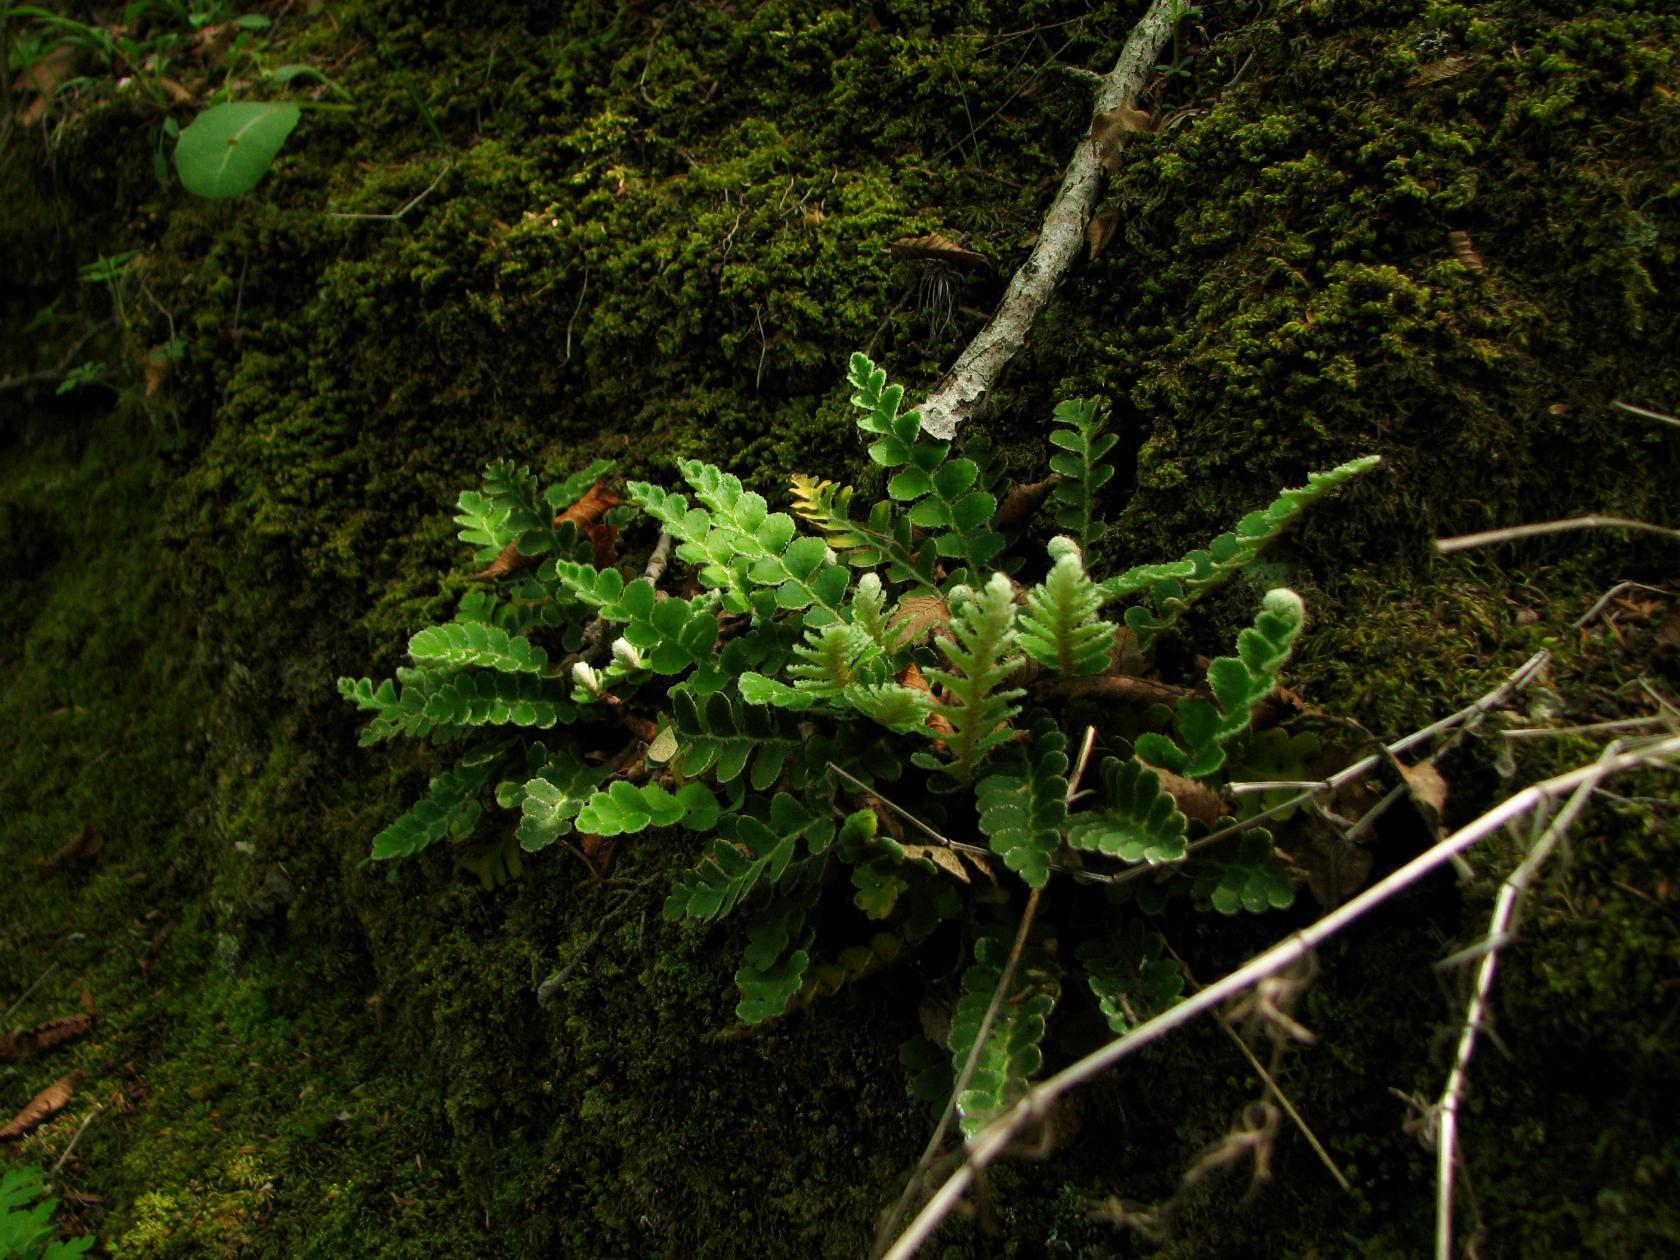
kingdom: Plantae
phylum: Tracheophyta
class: Polypodiopsida
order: Polypodiales
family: Aspleniaceae
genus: Asplenium
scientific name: Asplenium ceterach
